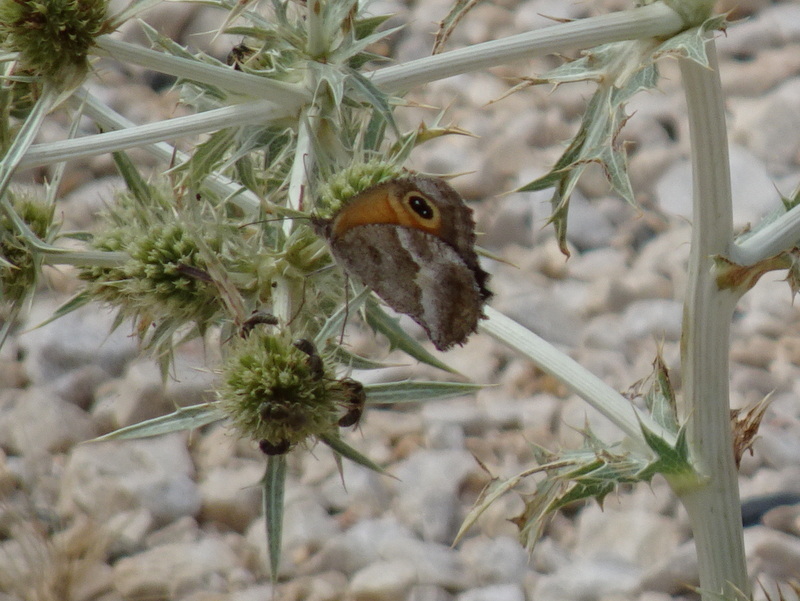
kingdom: Animalia
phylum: Arthropoda
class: Insecta
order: Lepidoptera
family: Nymphalidae
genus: Pyronia
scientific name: Pyronia cecilia
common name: Southern gatekeeper
